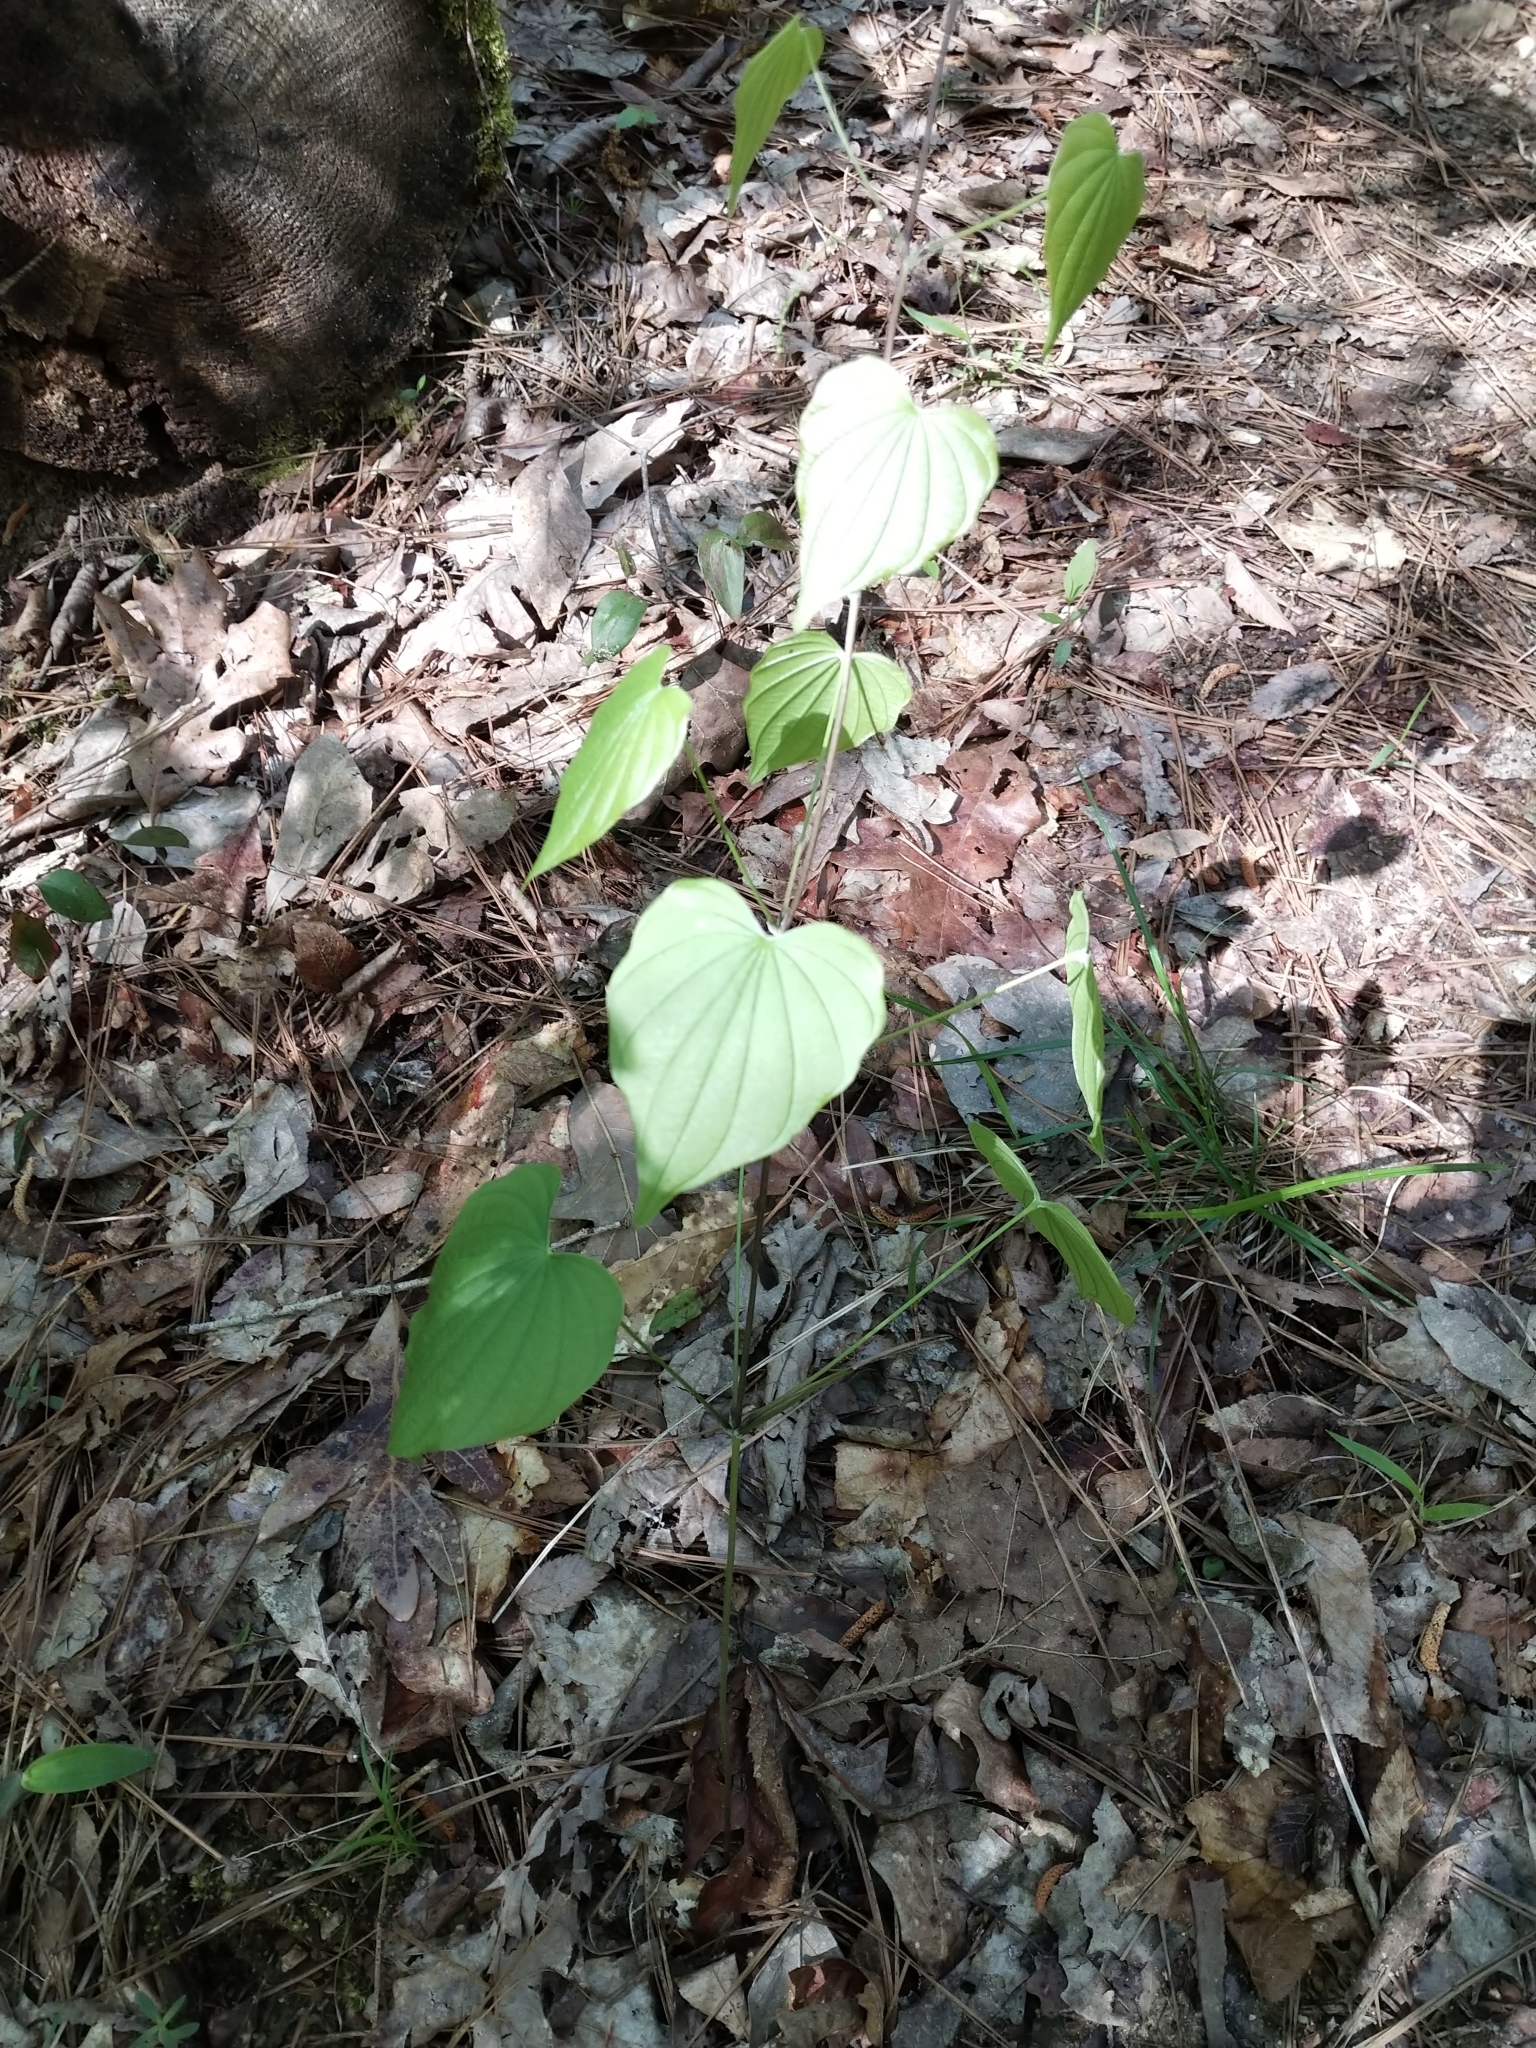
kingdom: Plantae
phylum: Tracheophyta
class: Liliopsida
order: Dioscoreales
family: Dioscoreaceae
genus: Dioscorea
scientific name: Dioscorea villosa
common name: Wild yam
